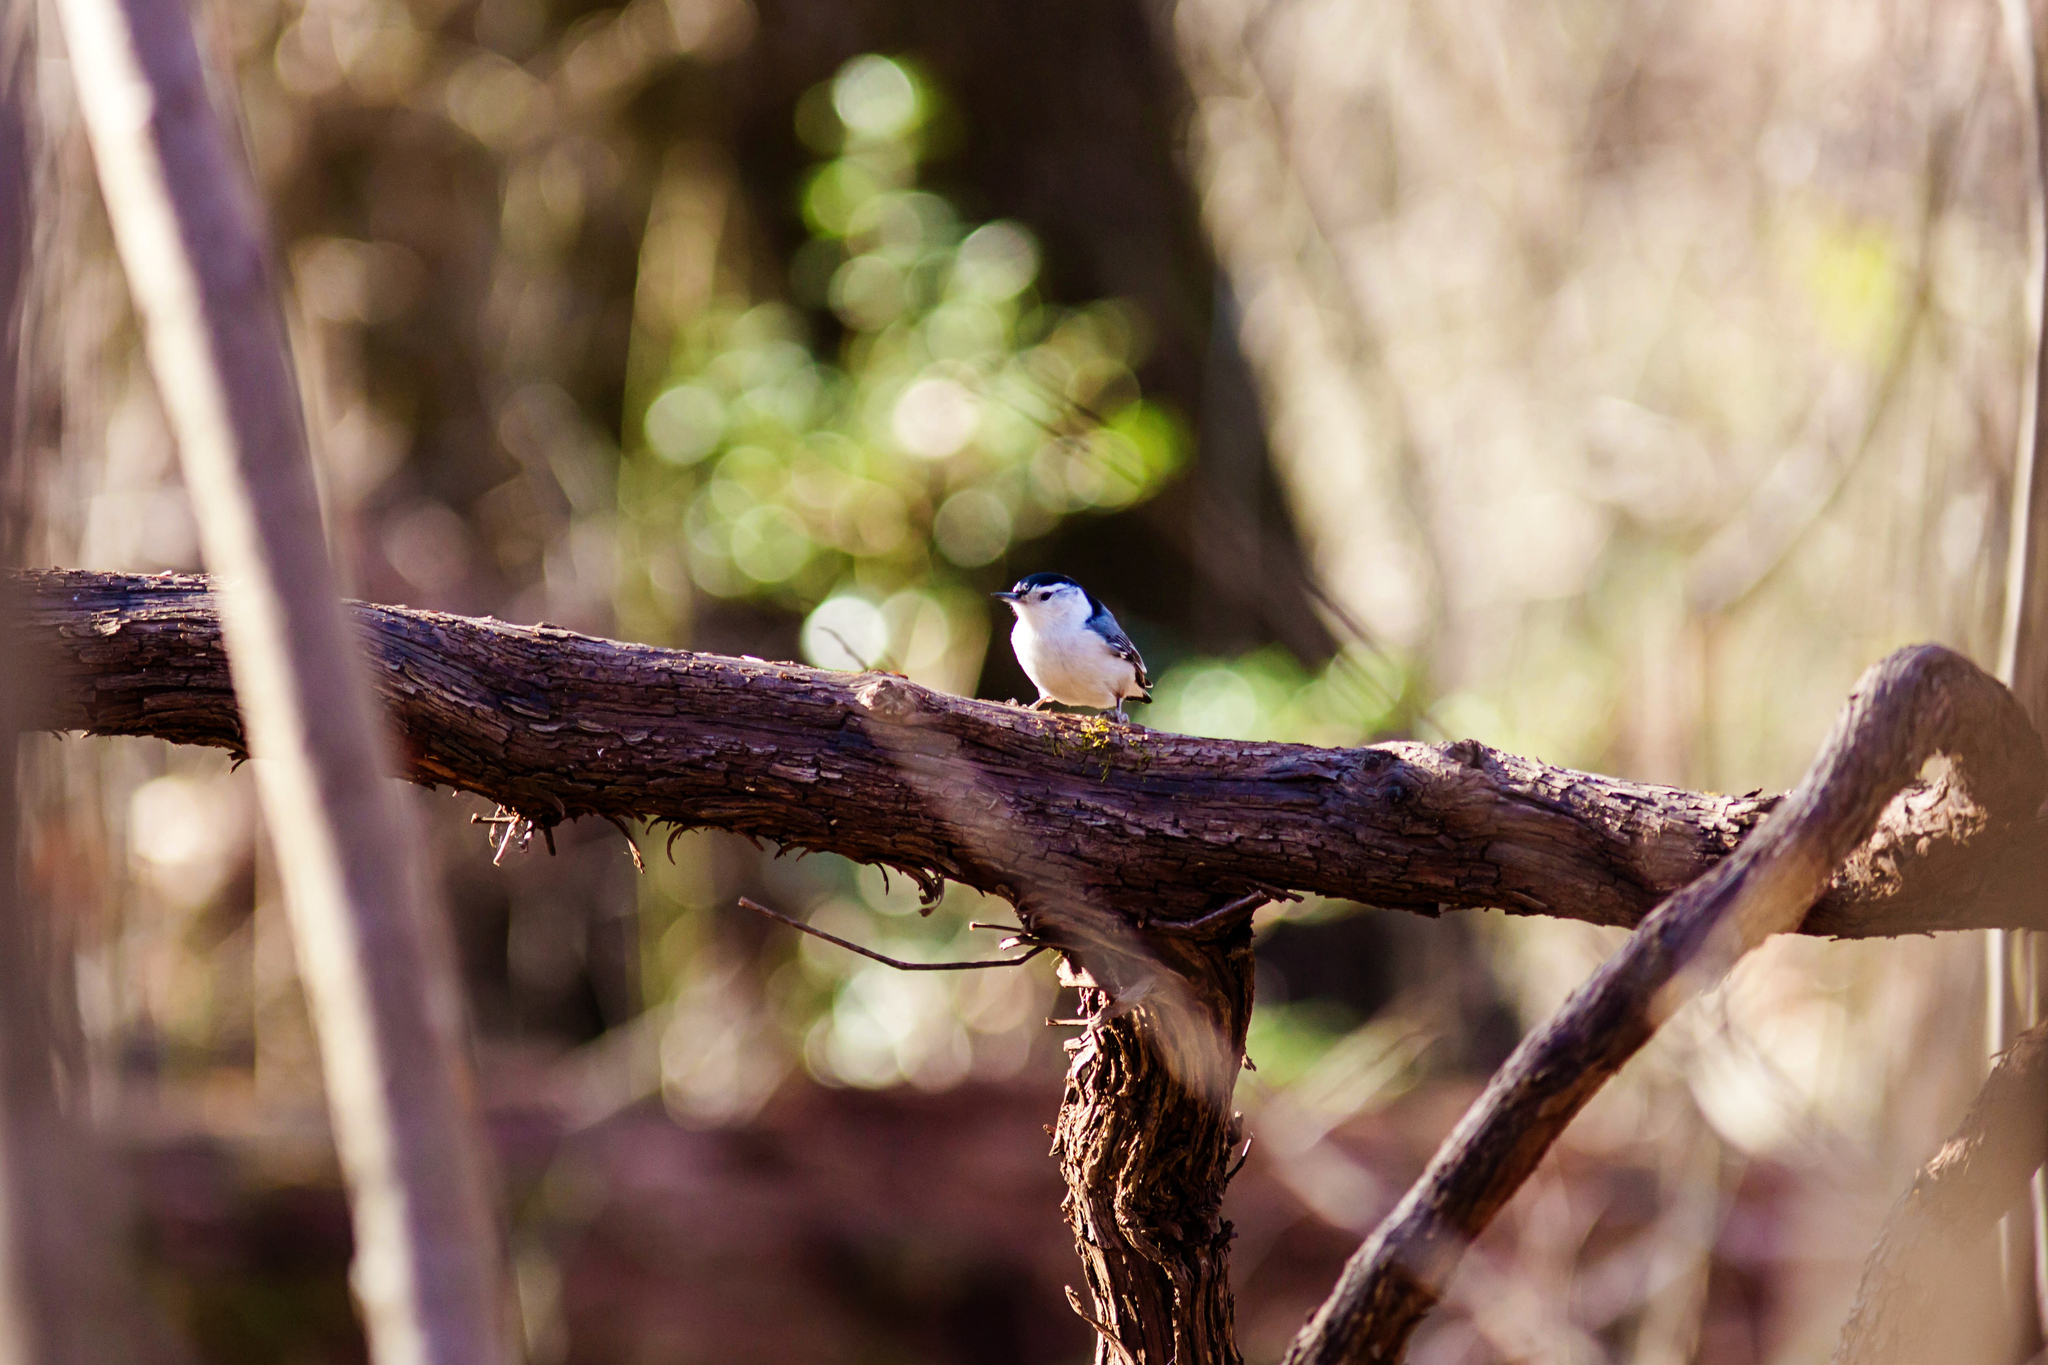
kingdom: Animalia
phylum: Chordata
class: Aves
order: Passeriformes
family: Sittidae
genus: Sitta
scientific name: Sitta carolinensis
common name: White-breasted nuthatch
